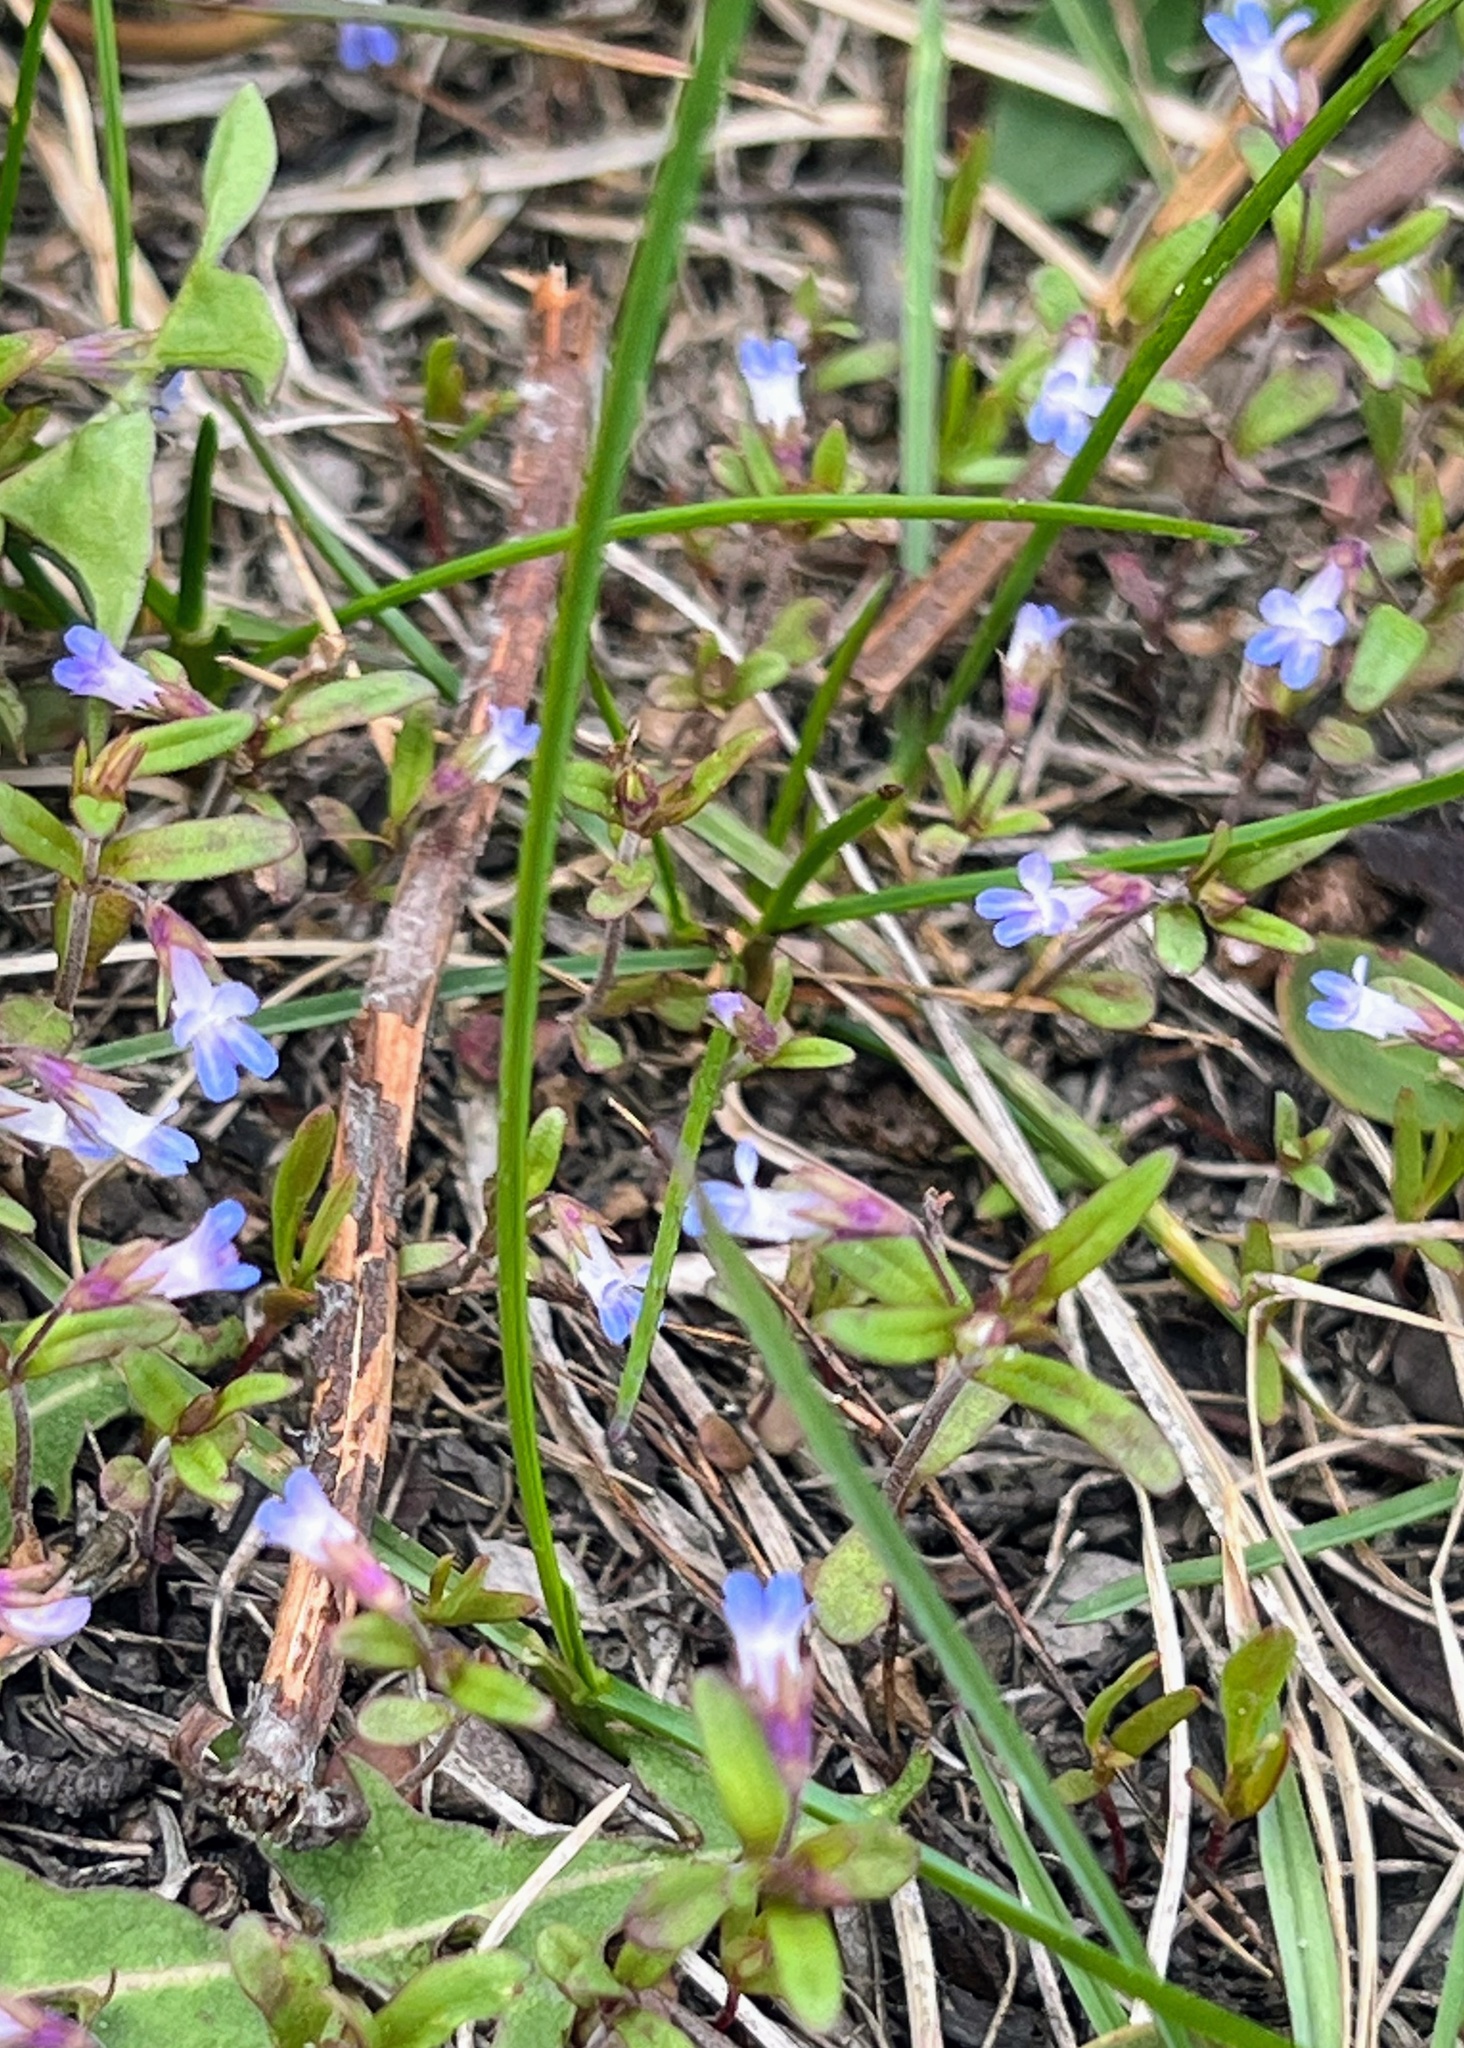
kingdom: Plantae
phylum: Tracheophyta
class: Magnoliopsida
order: Lamiales
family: Plantaginaceae
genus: Collinsia
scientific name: Collinsia parviflora
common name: Blue-lips
